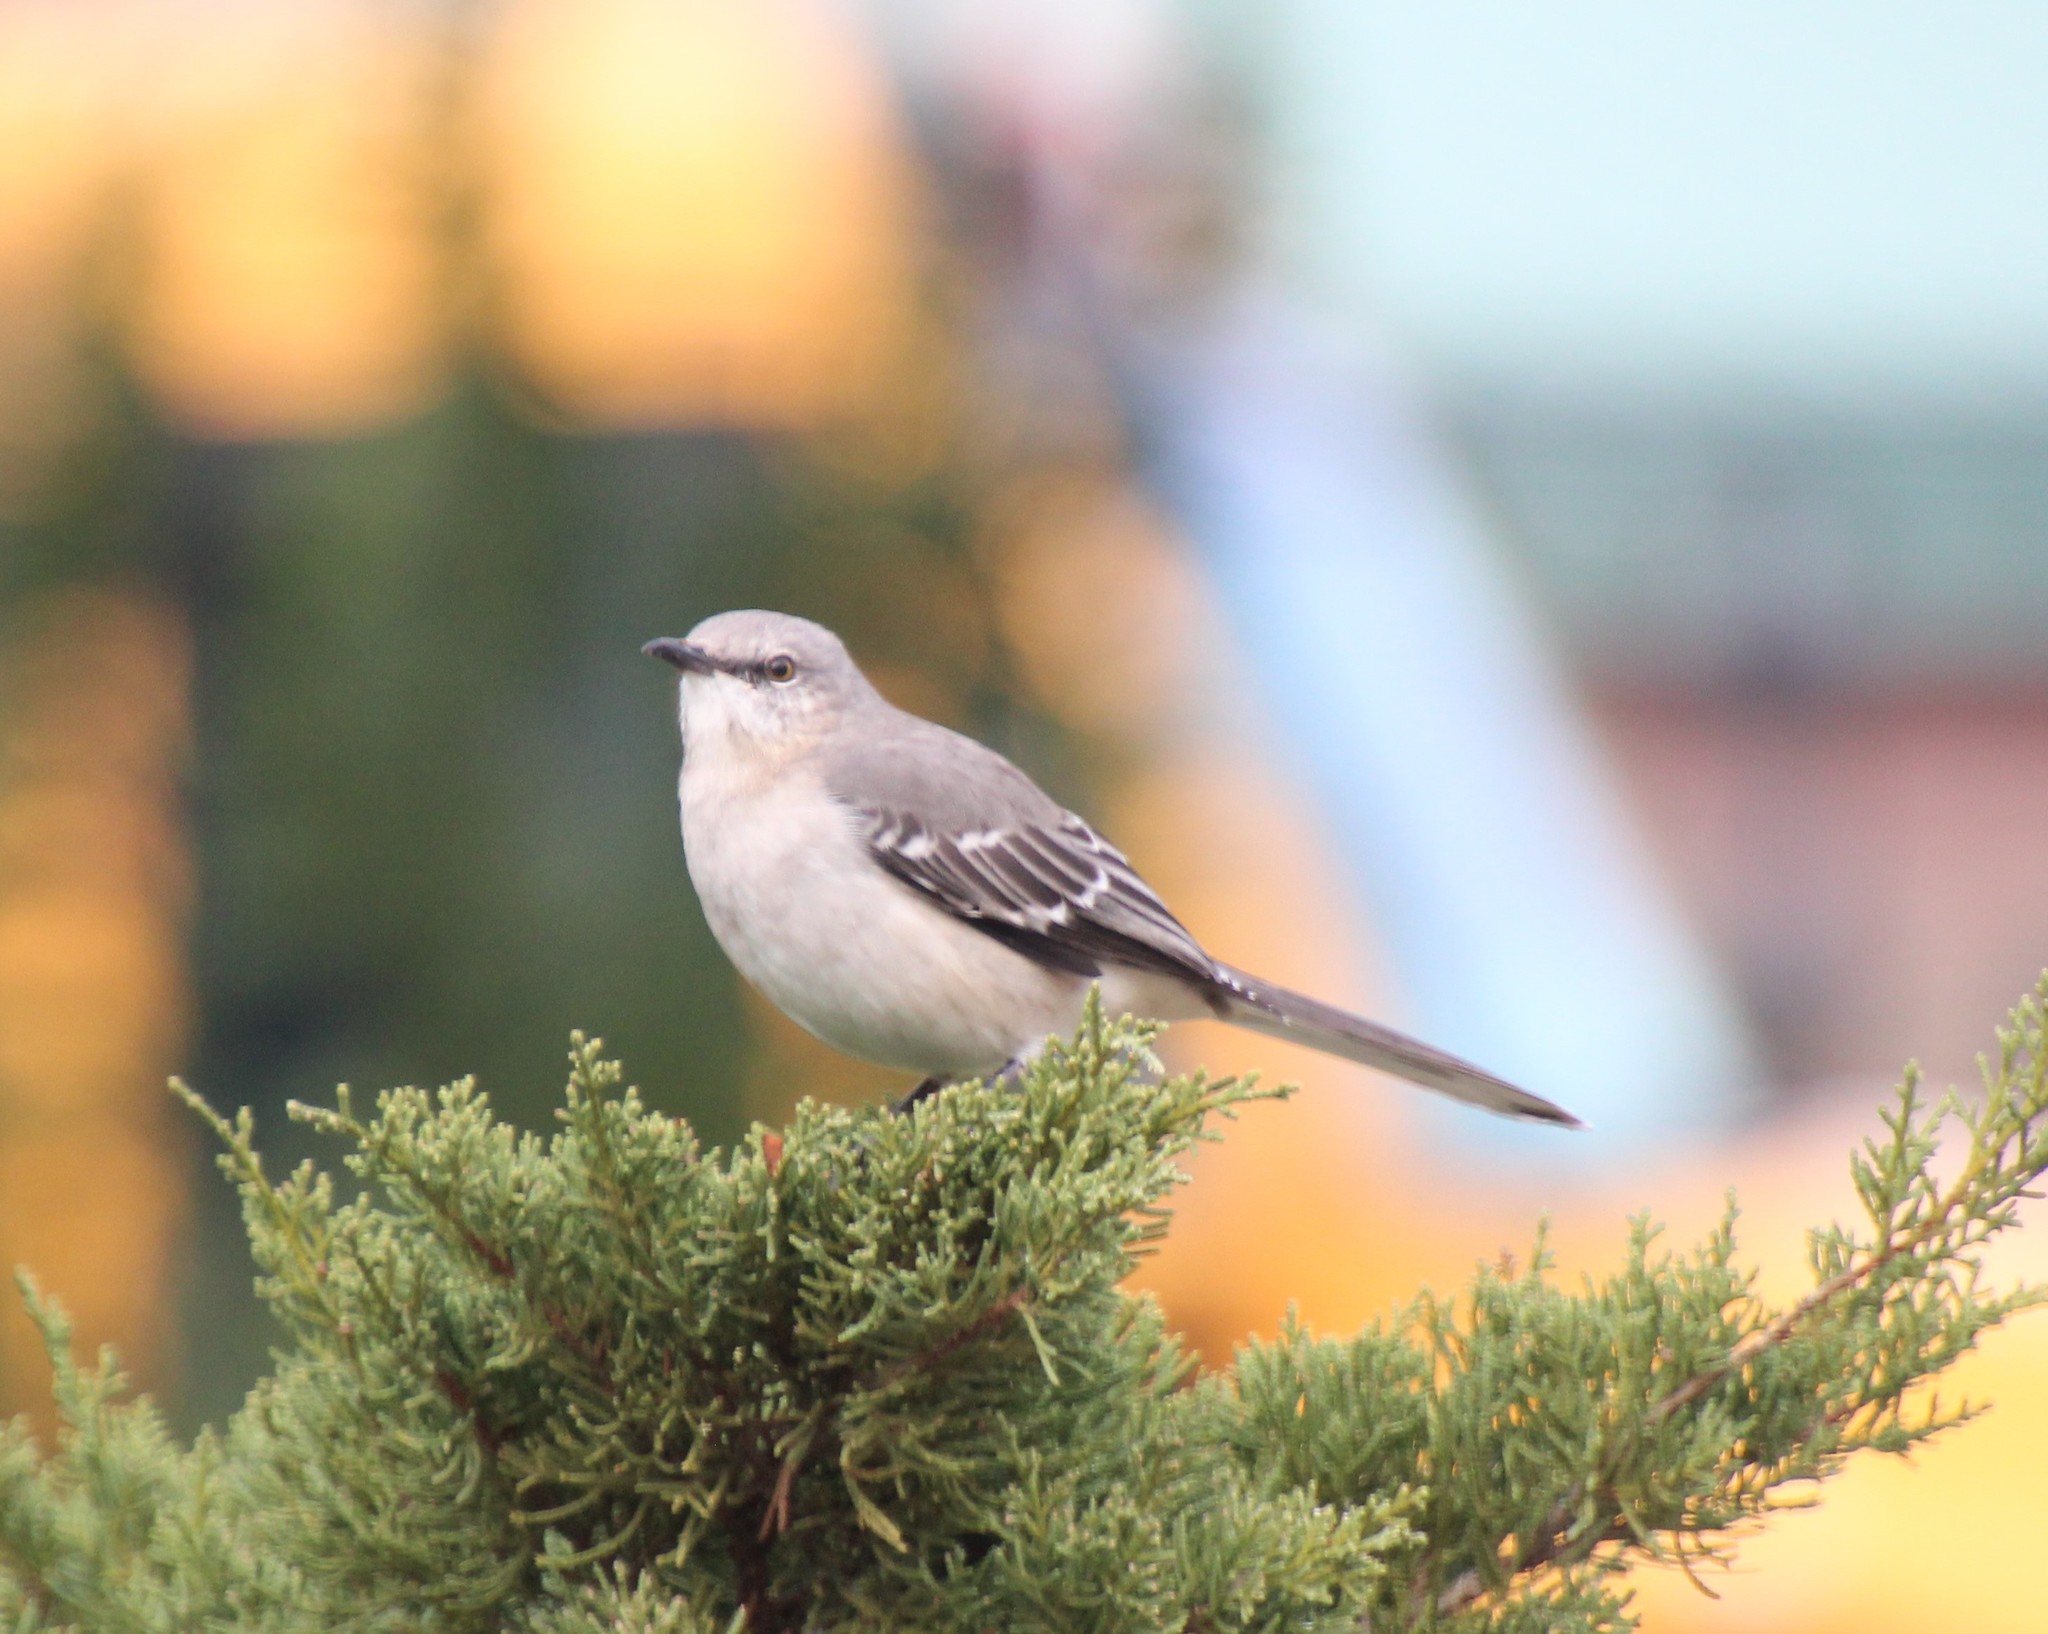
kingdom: Animalia
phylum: Chordata
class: Aves
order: Passeriformes
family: Mimidae
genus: Mimus
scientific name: Mimus polyglottos
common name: Northern mockingbird
